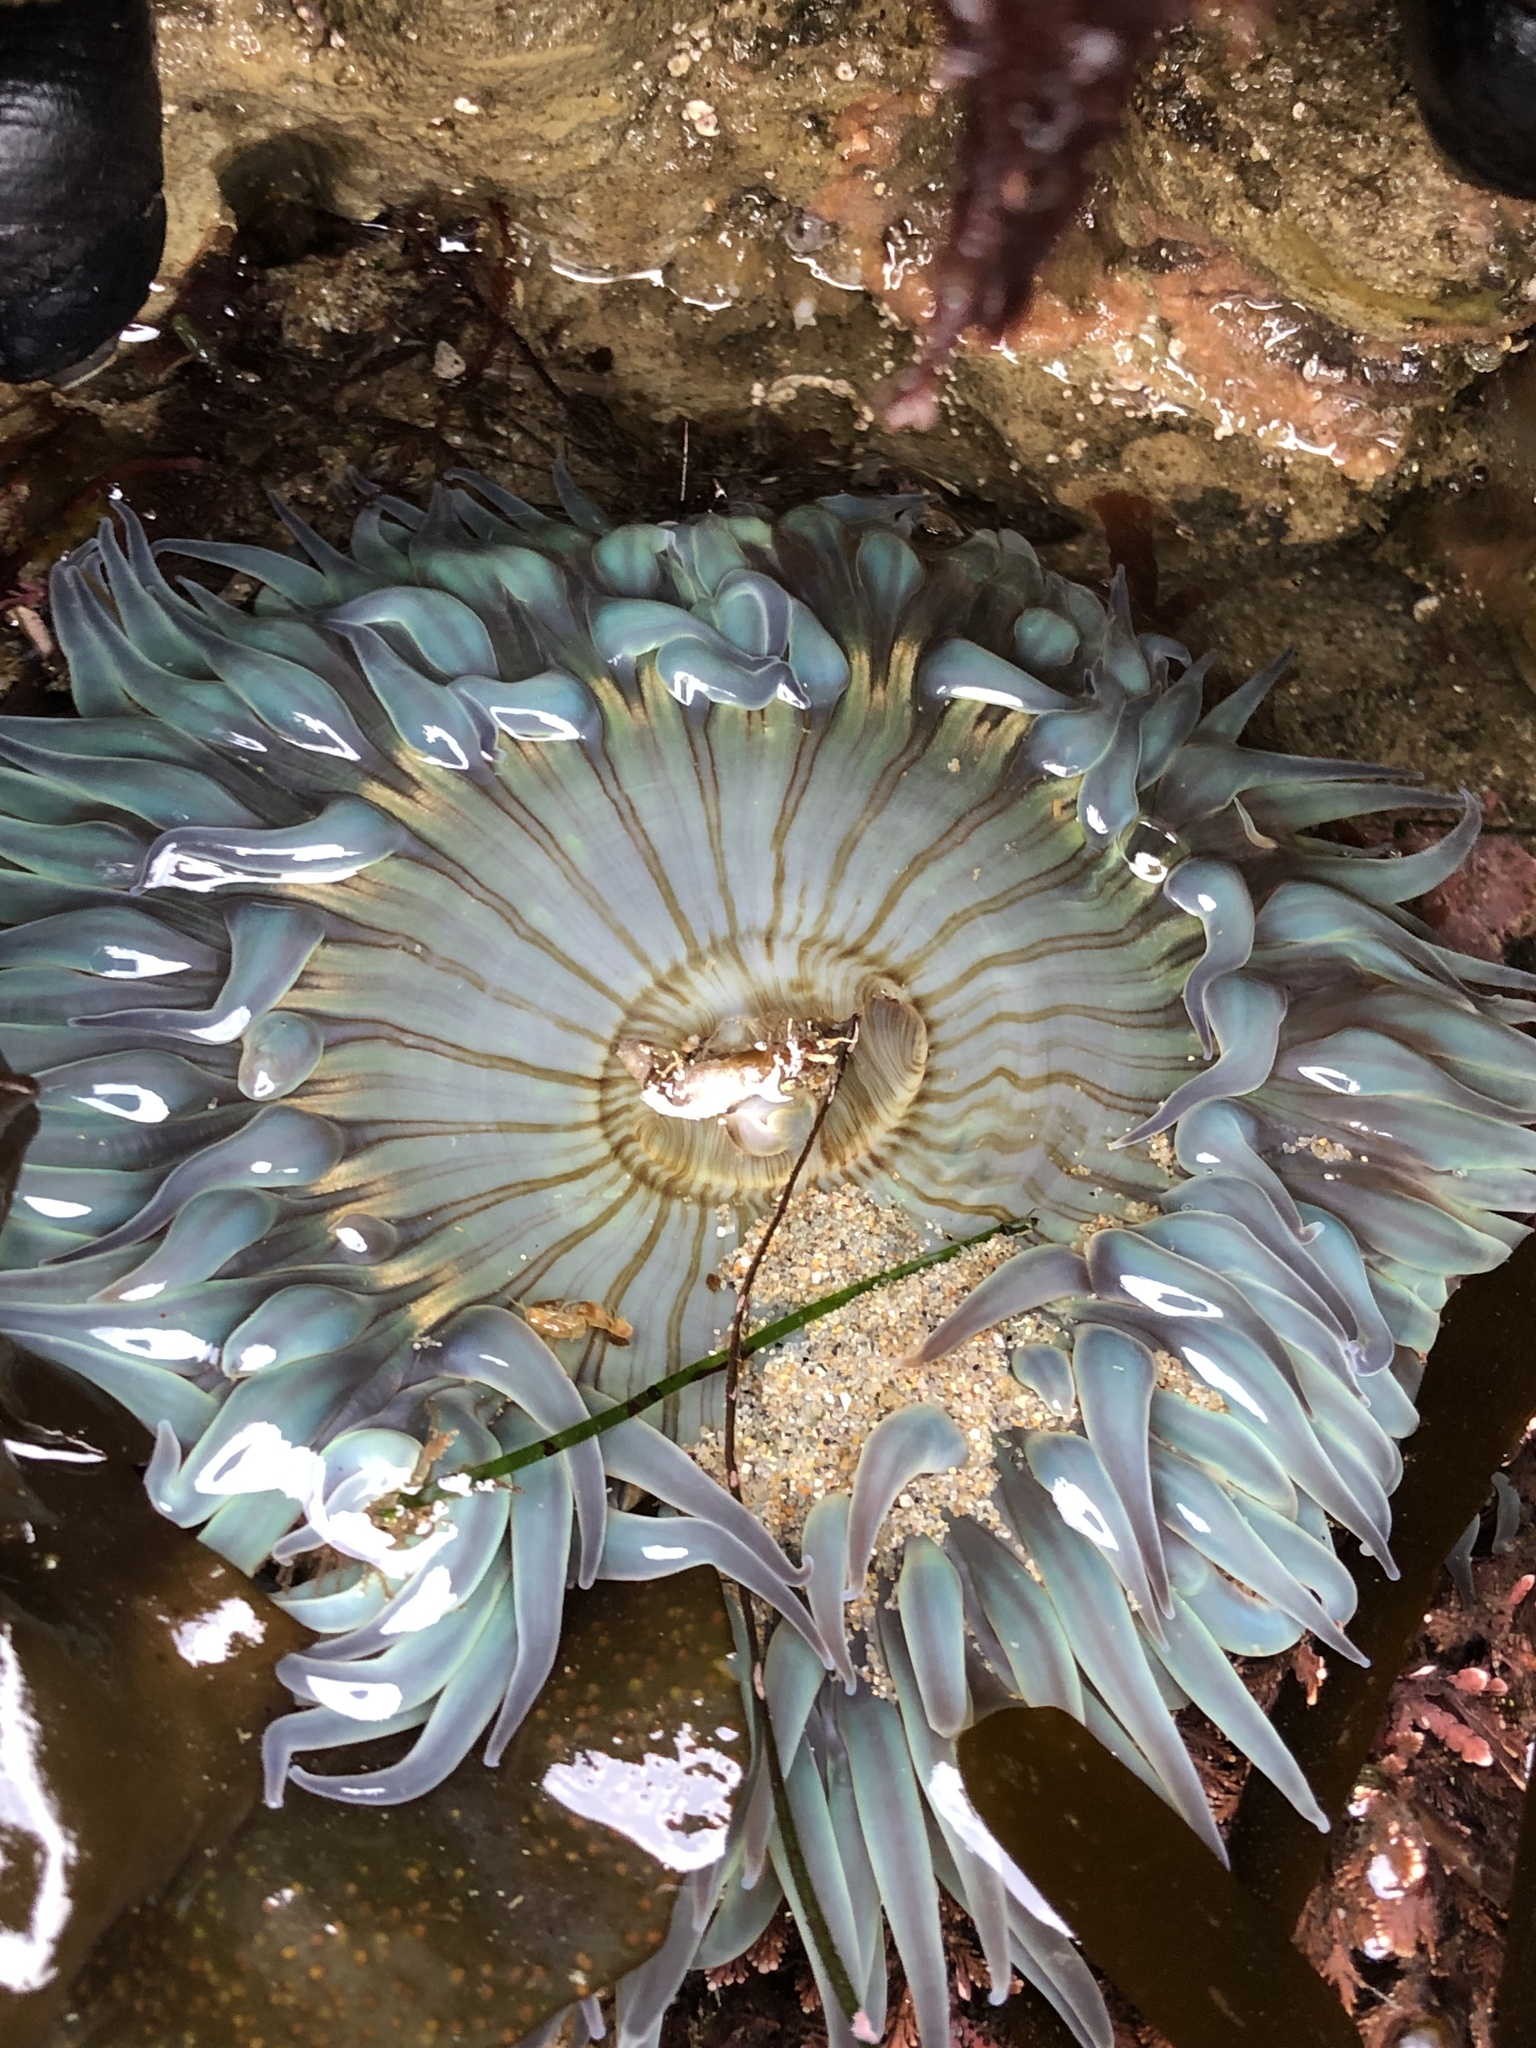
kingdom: Animalia
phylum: Cnidaria
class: Anthozoa
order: Actiniaria
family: Actiniidae
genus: Anthopleura
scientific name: Anthopleura sola
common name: Sun anemone
